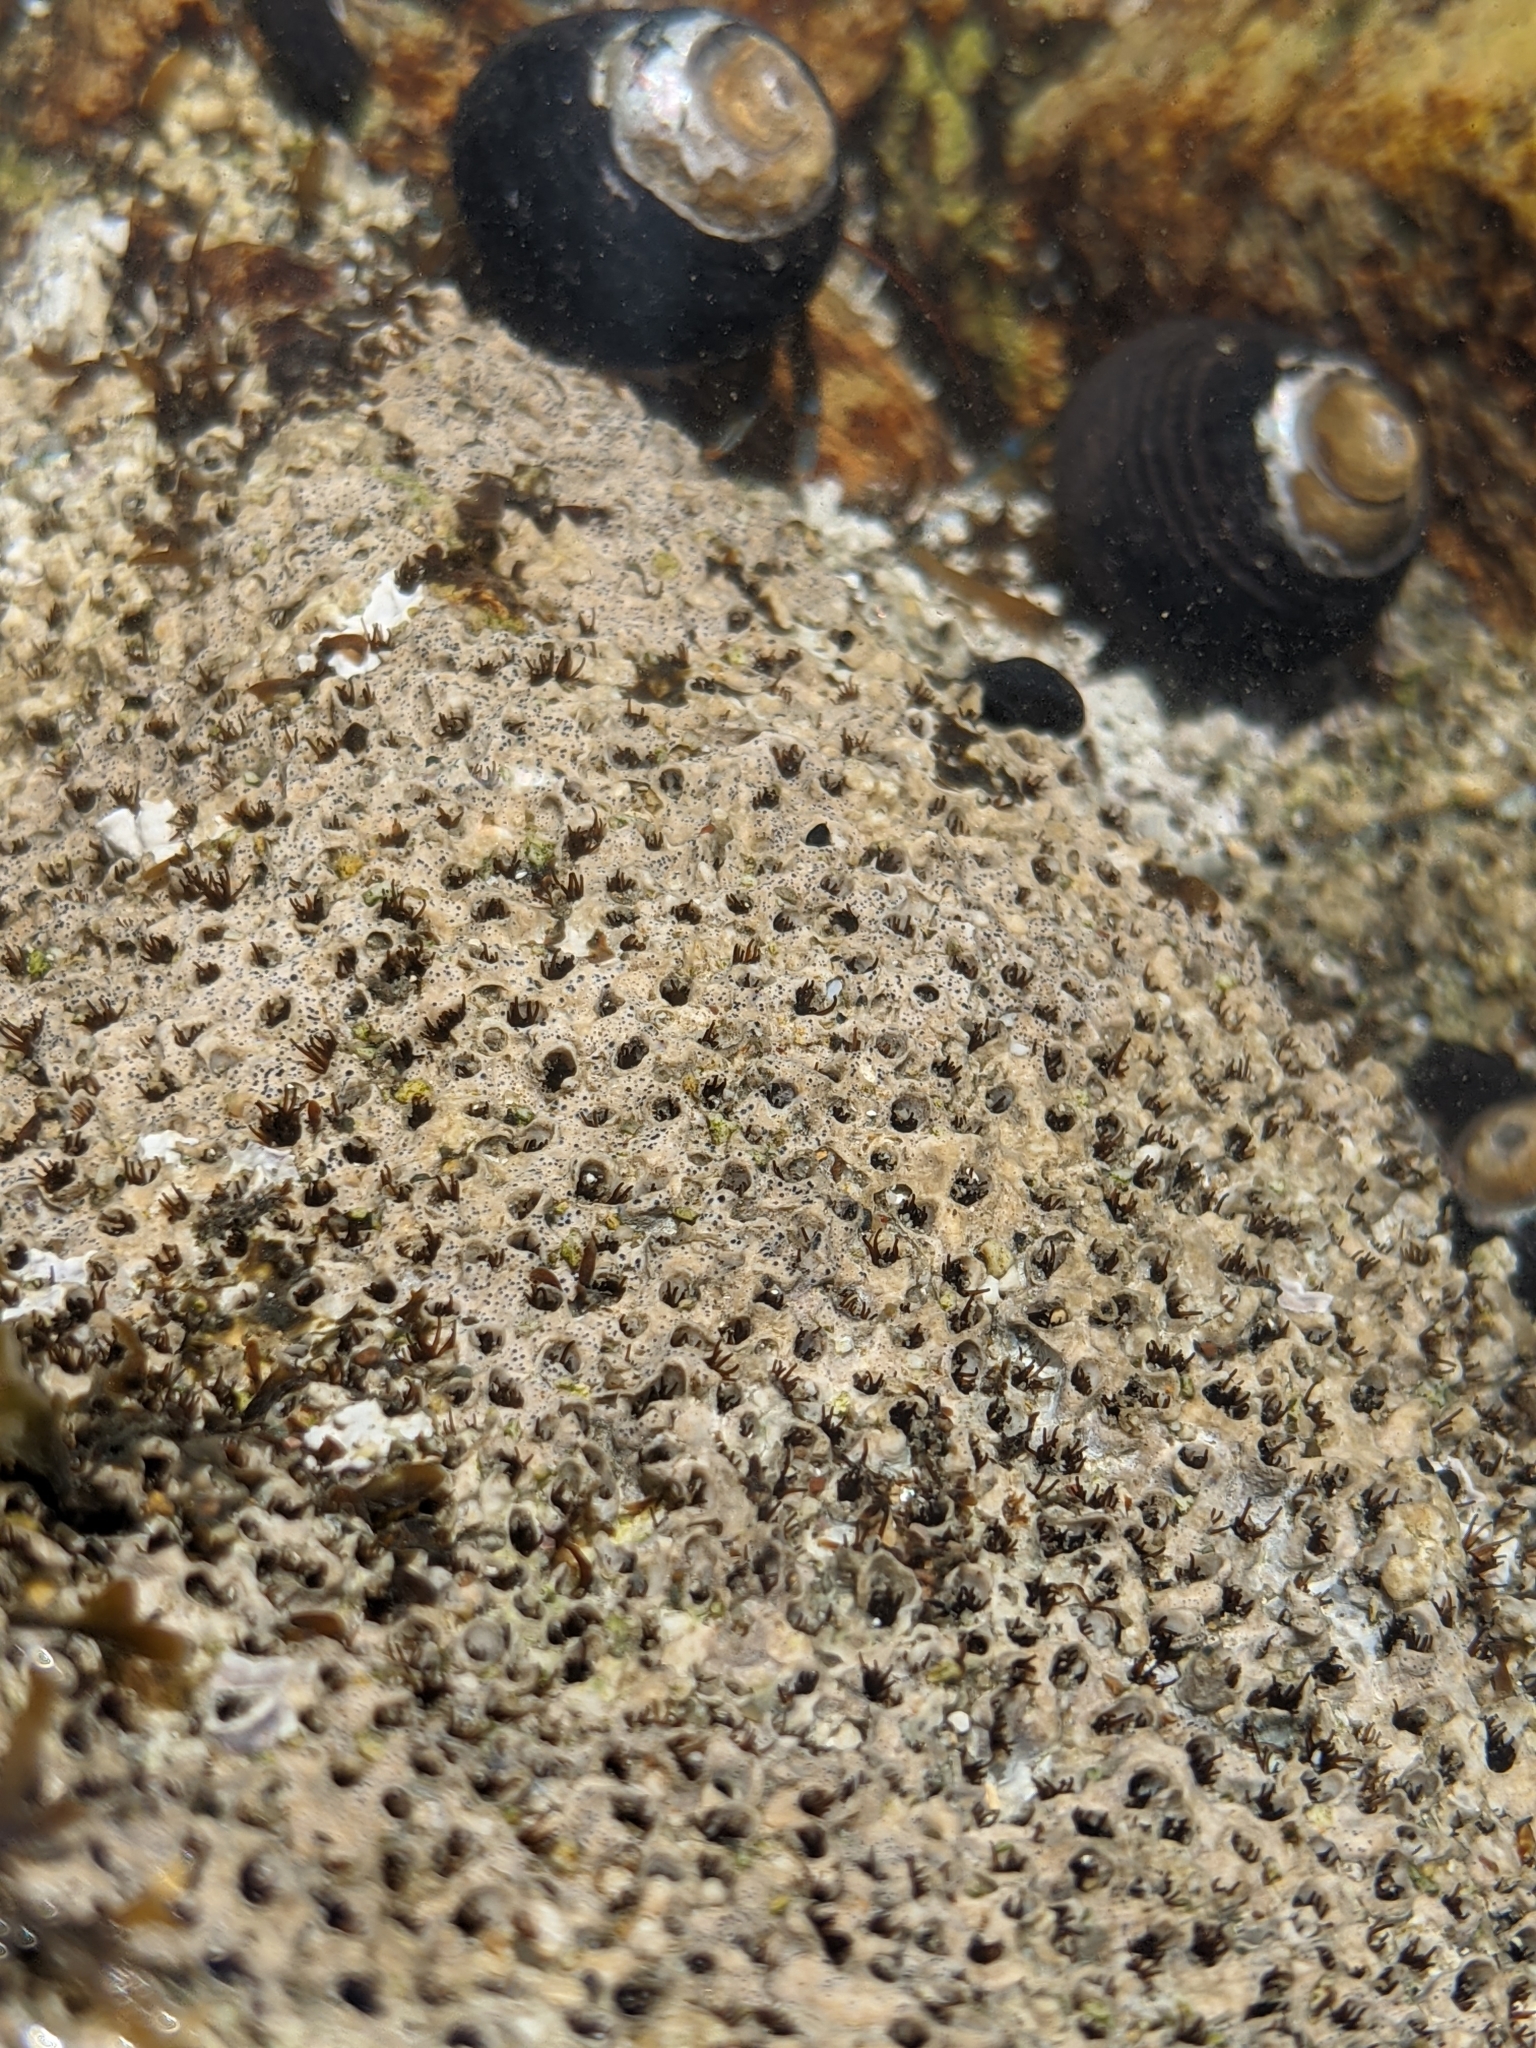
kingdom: Animalia
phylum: Annelida
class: Polychaeta
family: Cirratulidae
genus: Dodecaceria
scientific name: Dodecaceria pacifica
